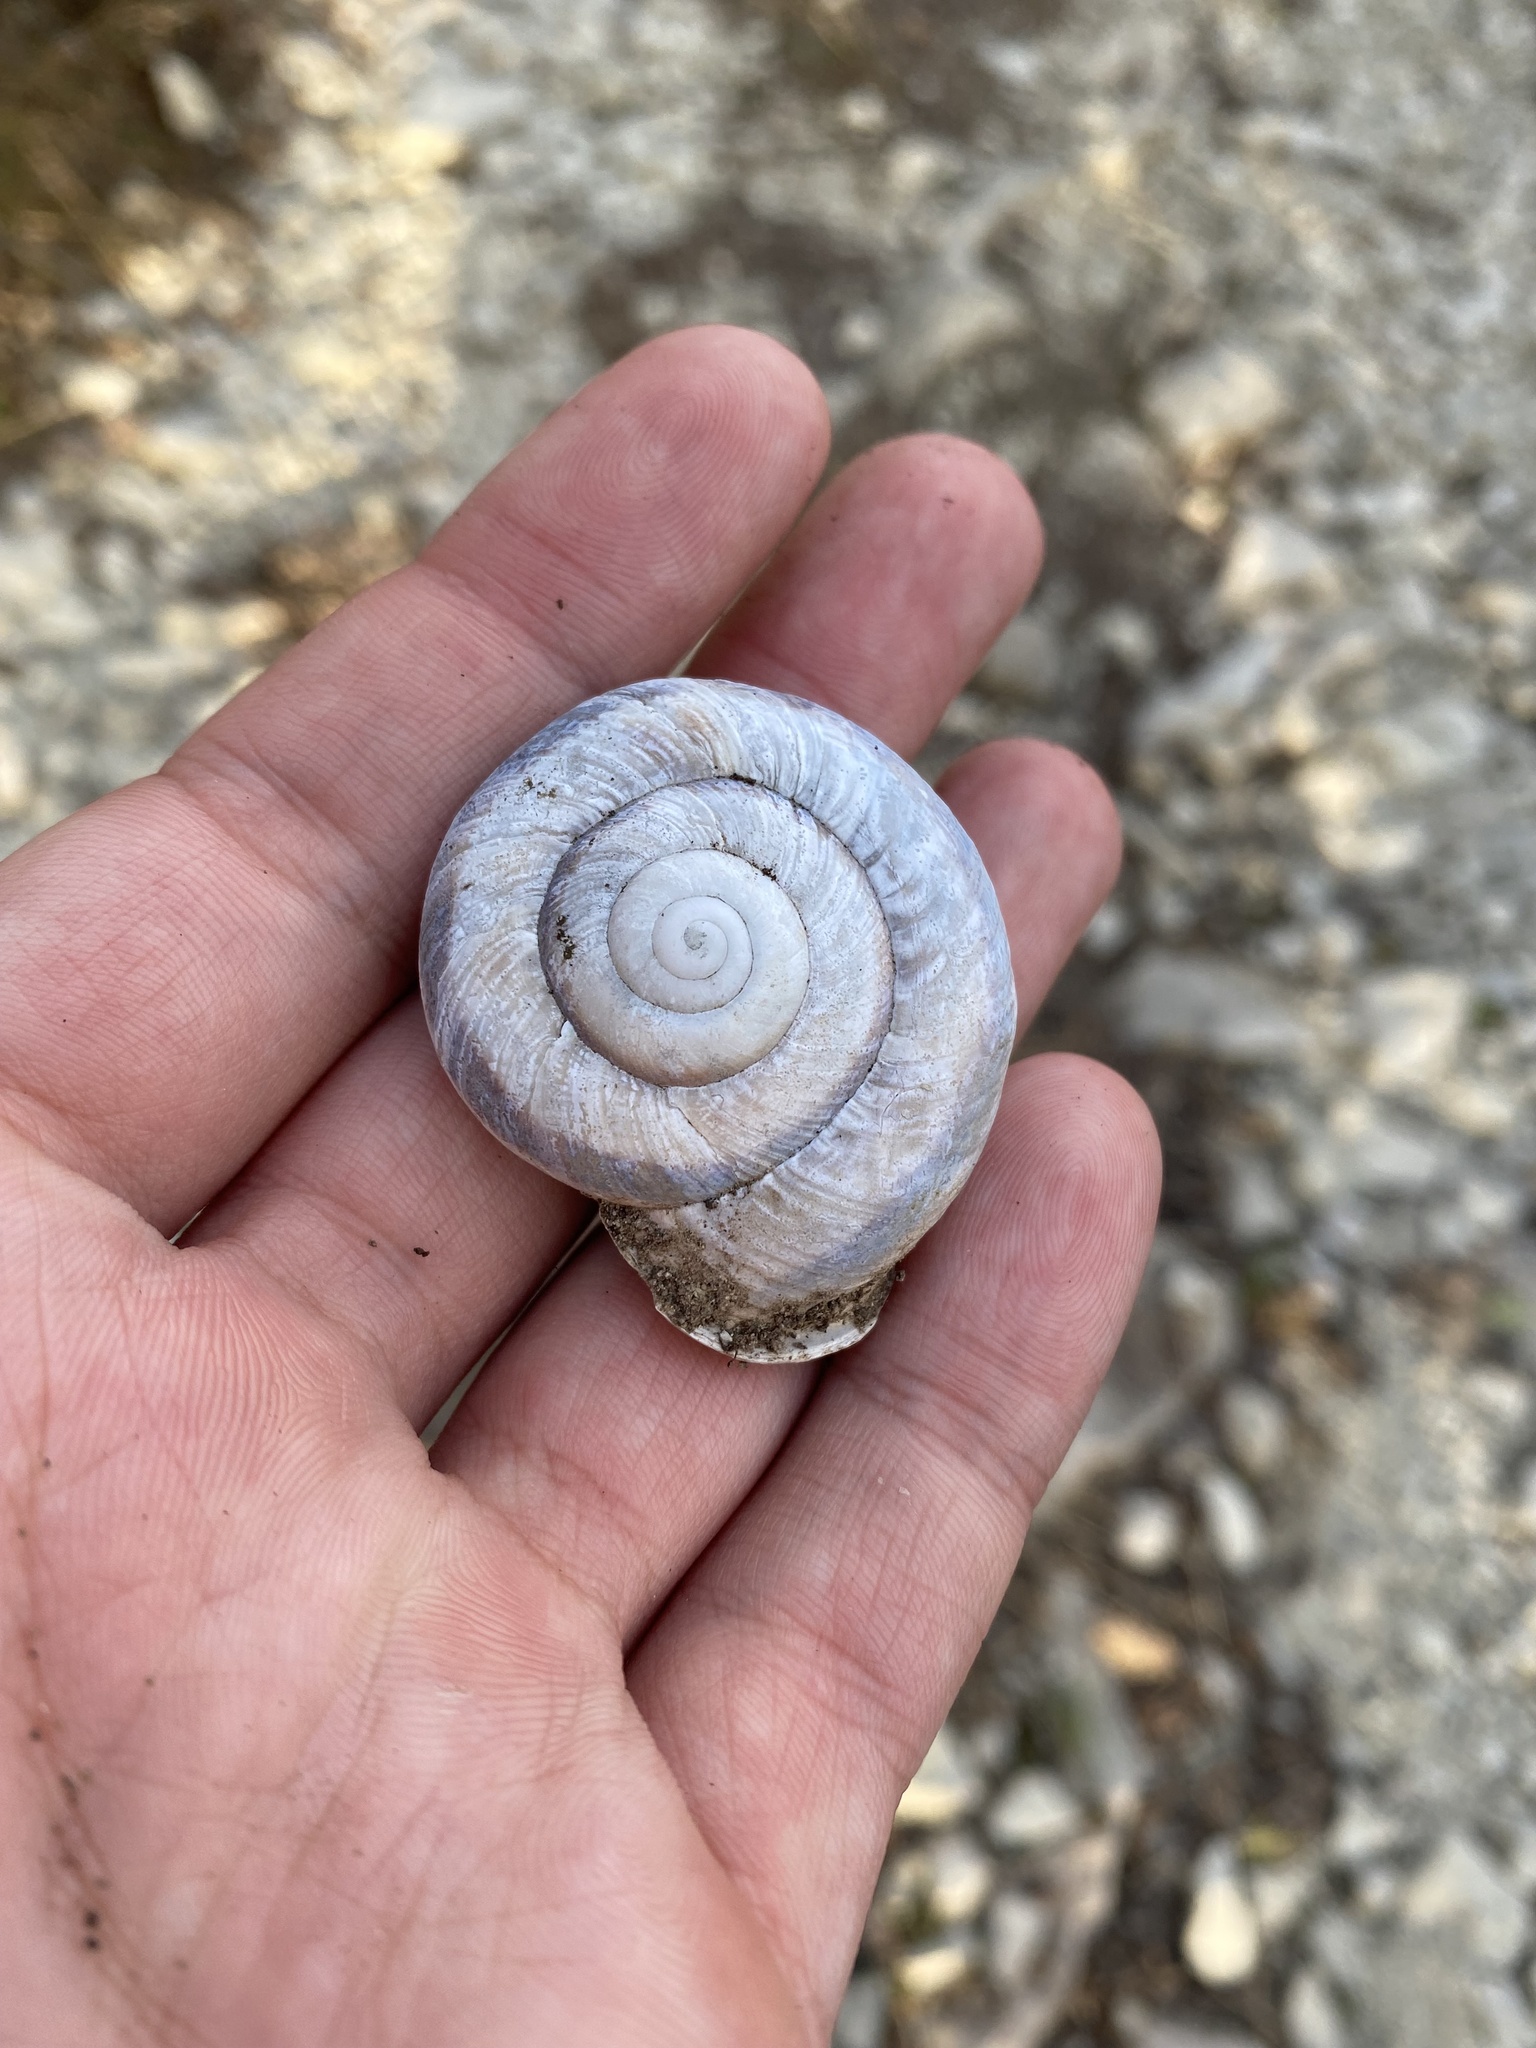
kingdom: Animalia
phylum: Mollusca
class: Gastropoda
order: Stylommatophora
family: Helicidae
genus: Caucasotachea
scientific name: Caucasotachea atrolabiata
